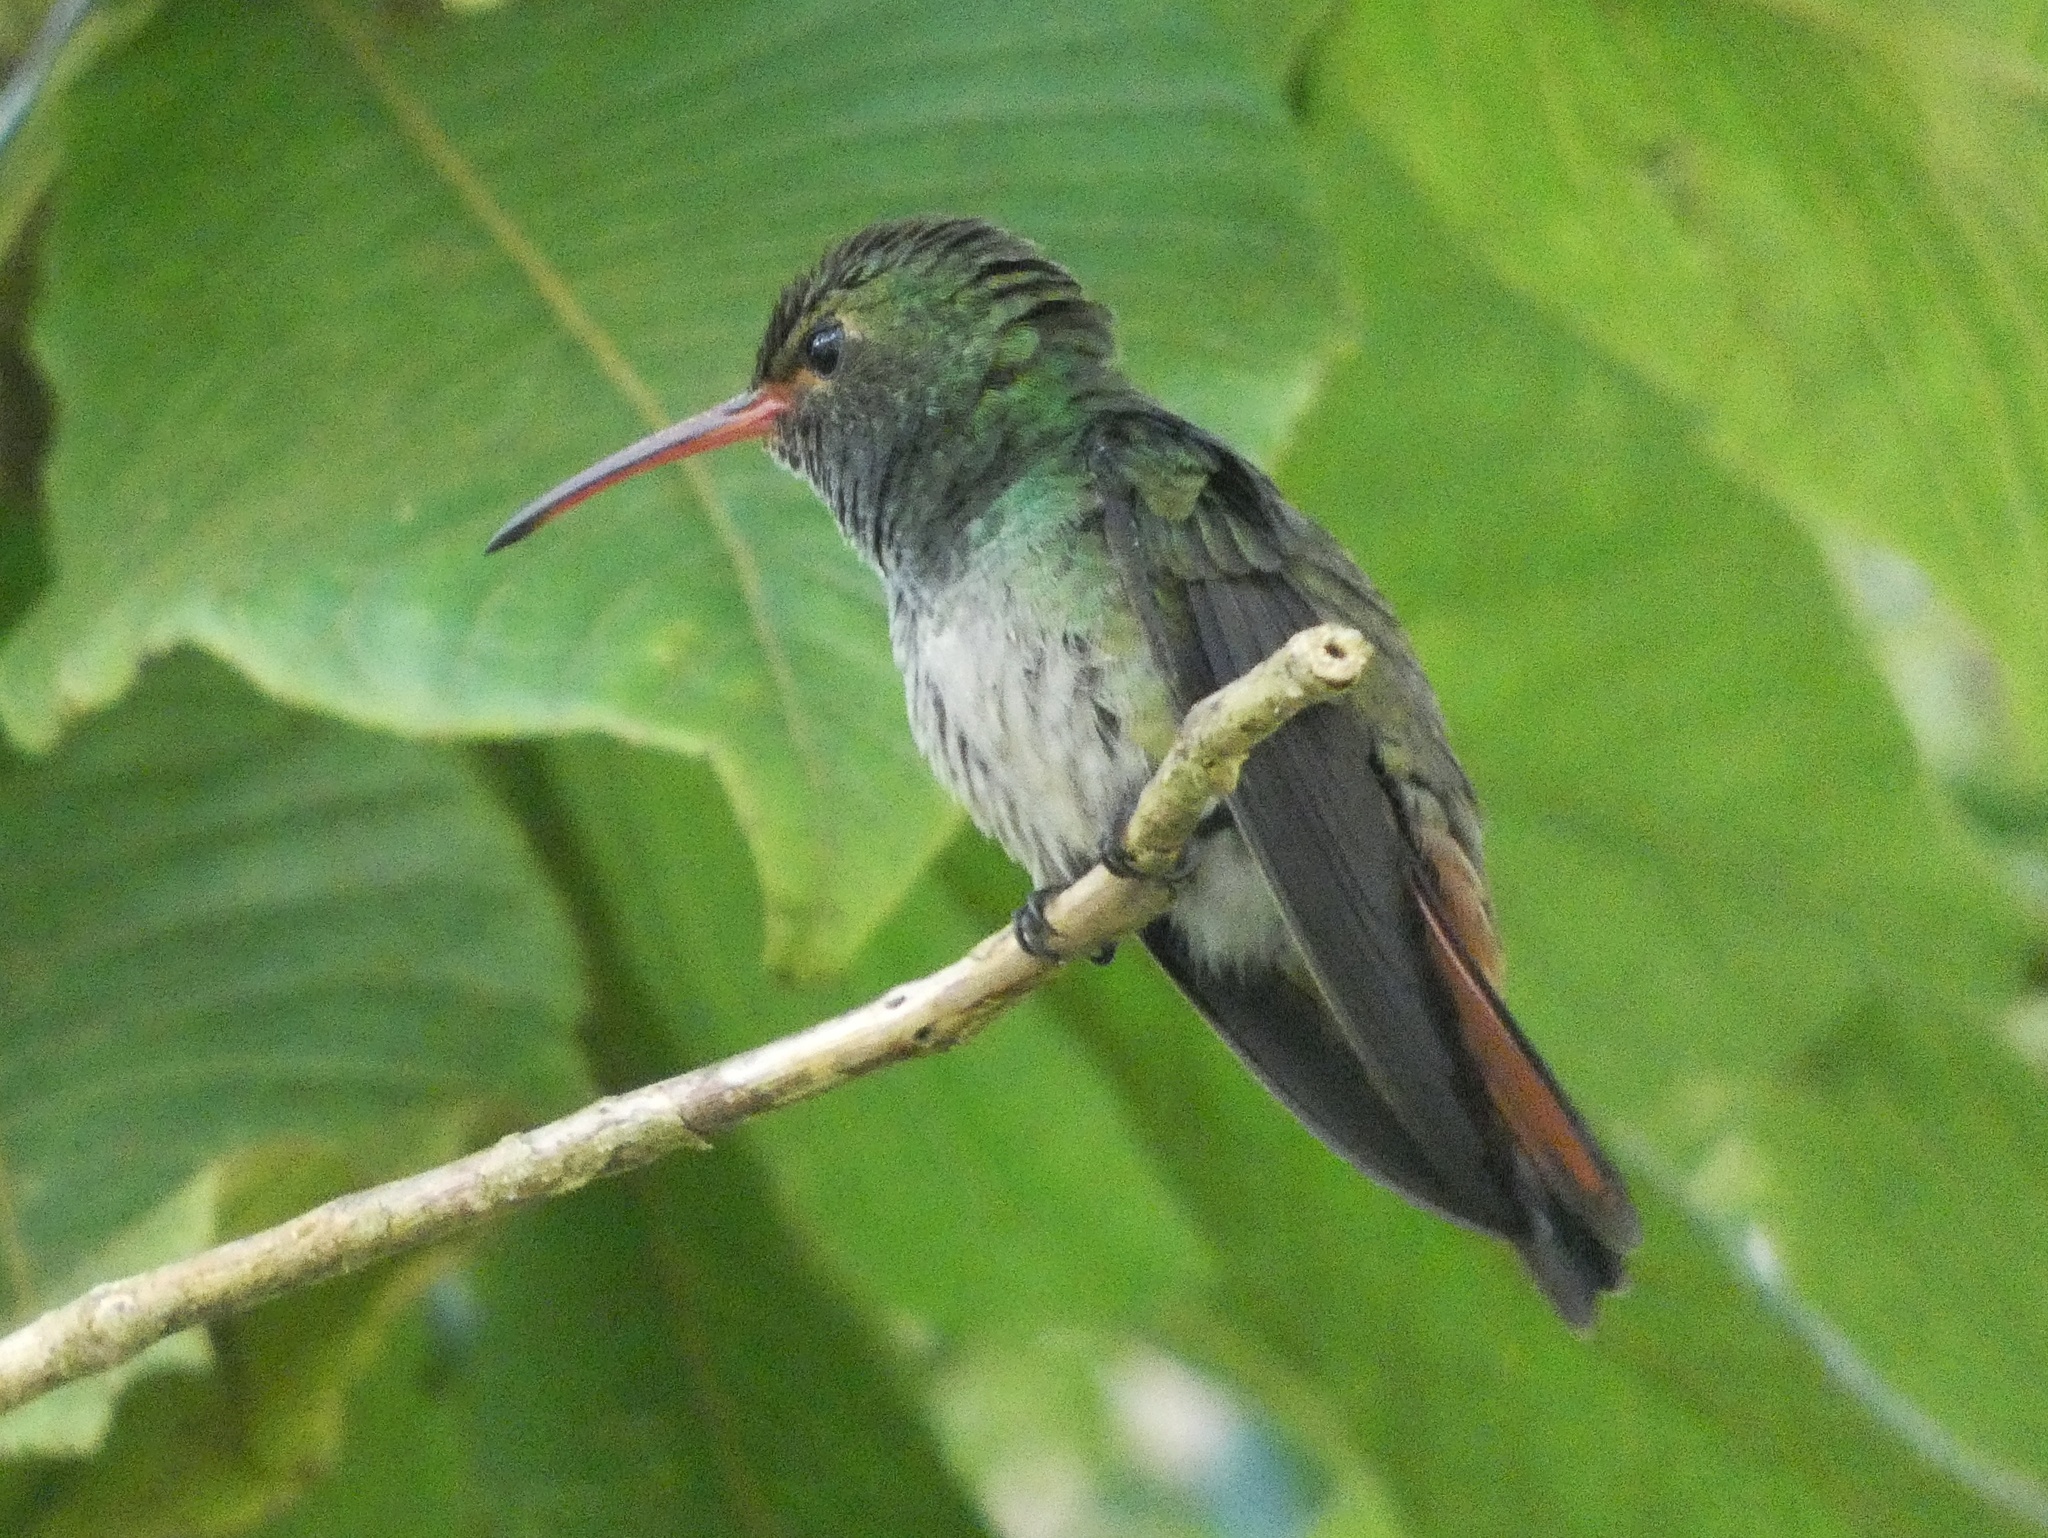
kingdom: Animalia
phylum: Chordata
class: Aves
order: Apodiformes
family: Trochilidae
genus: Amazilia
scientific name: Amazilia tzacatl
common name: Rufous-tailed hummingbird
